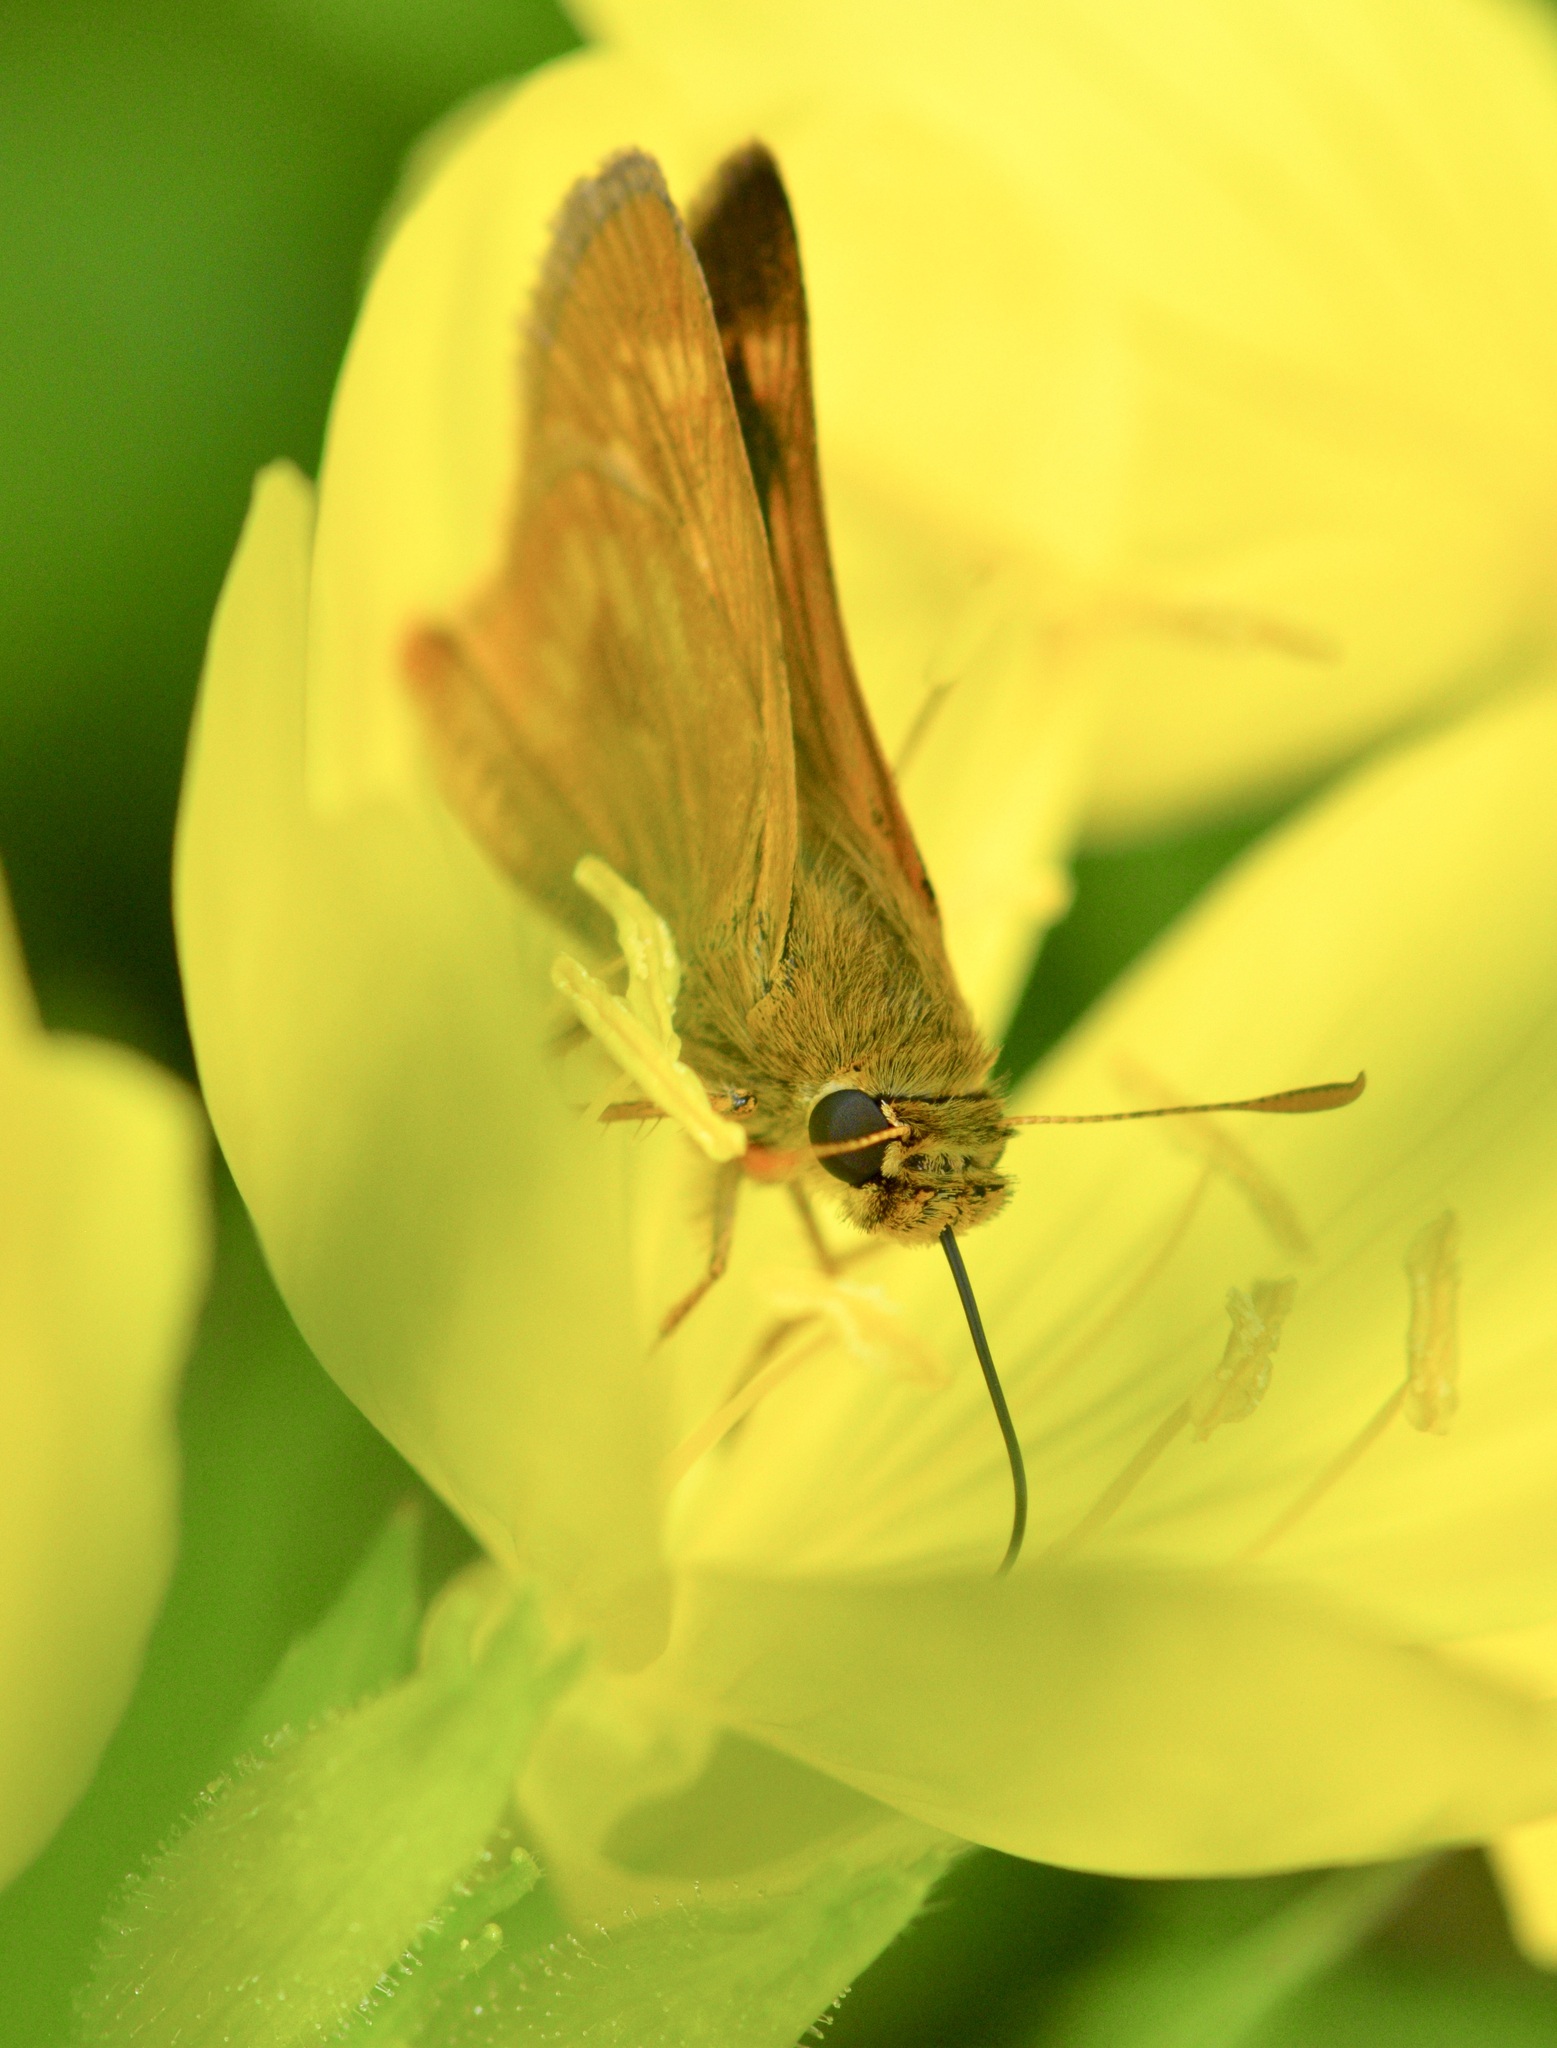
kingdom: Animalia
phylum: Arthropoda
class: Insecta
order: Lepidoptera
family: Hesperiidae
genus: Polites
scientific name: Polites mystic
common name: Long dash
